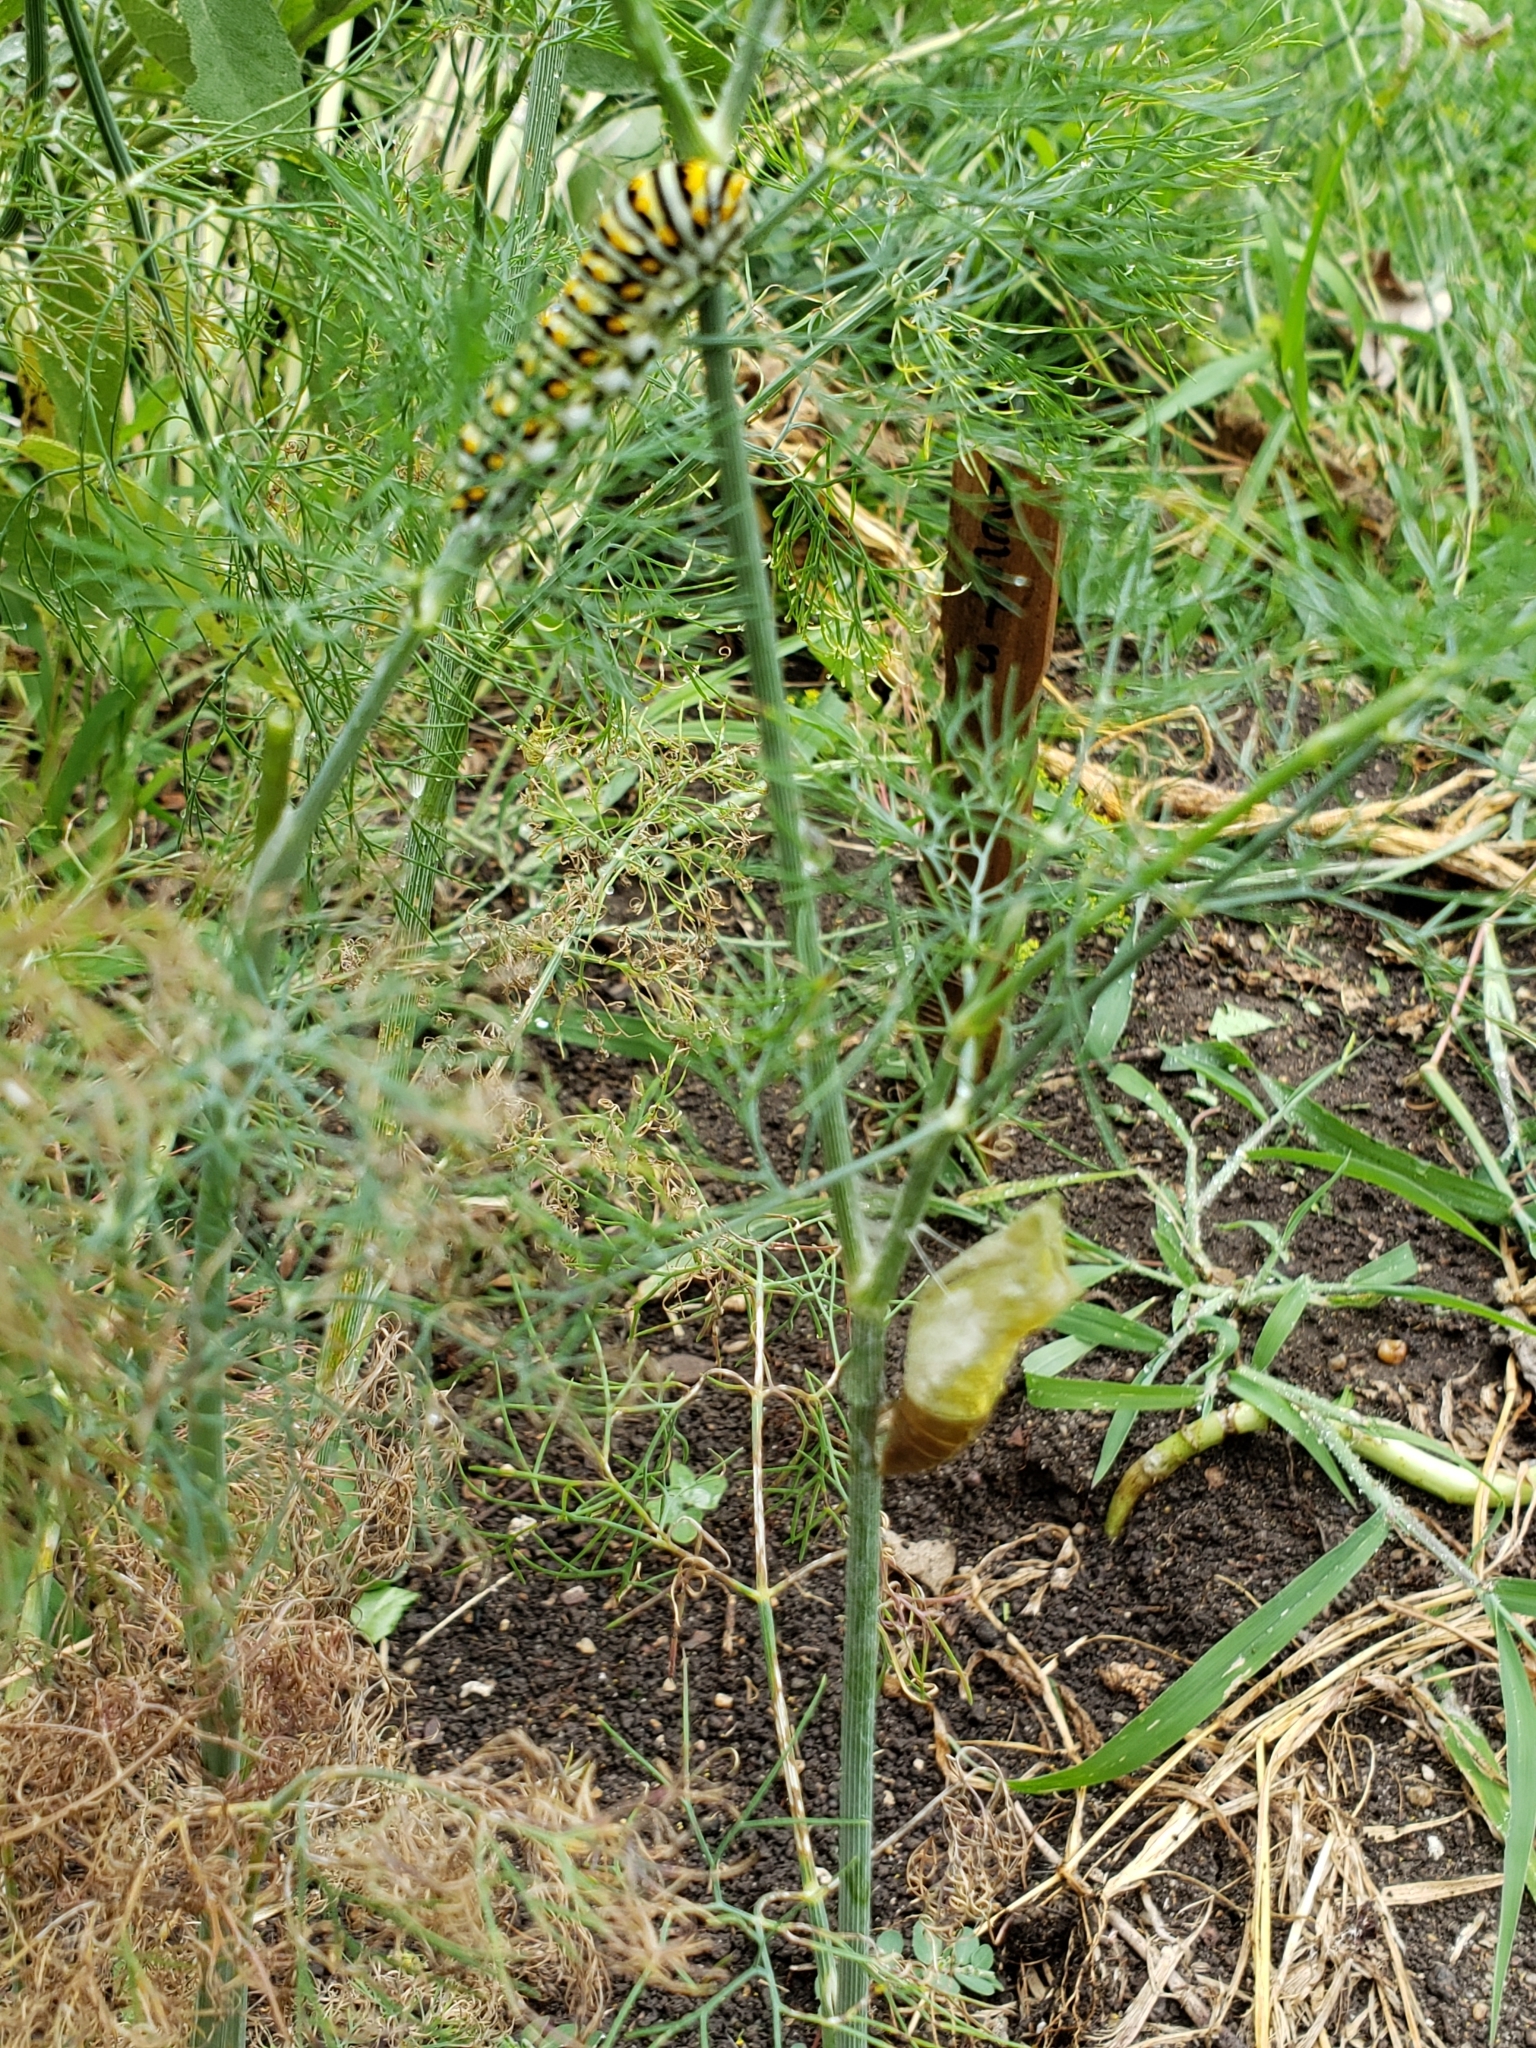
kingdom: Animalia
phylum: Arthropoda
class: Insecta
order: Lepidoptera
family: Papilionidae
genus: Papilio
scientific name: Papilio polyxenes
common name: Black swallowtail
